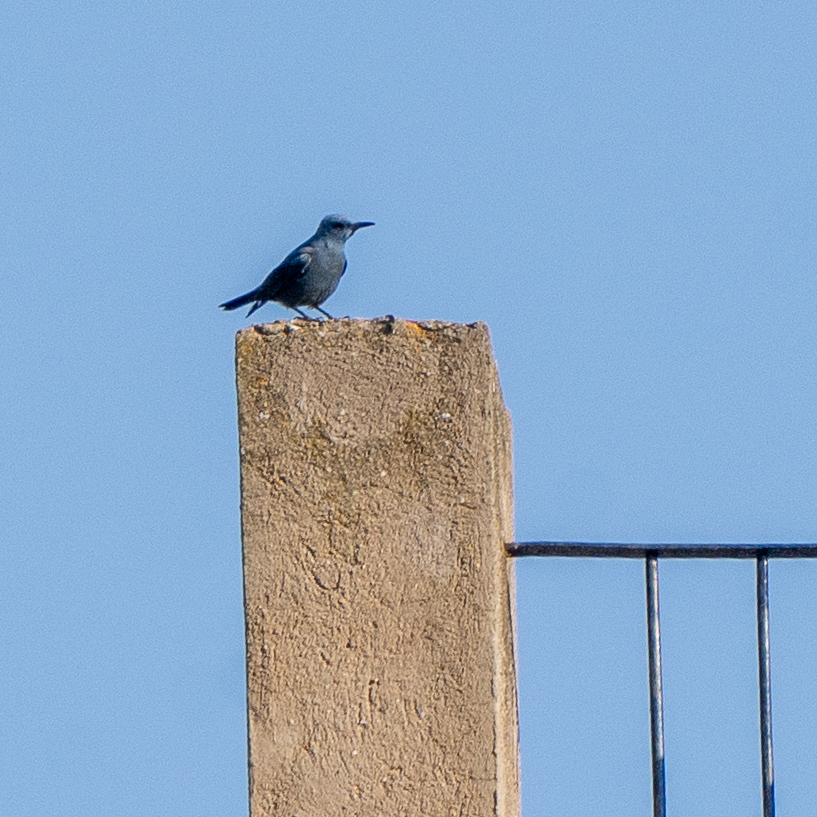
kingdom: Animalia
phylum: Chordata
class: Aves
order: Passeriformes
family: Muscicapidae
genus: Monticola
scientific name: Monticola solitarius
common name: Blue rock thrush
